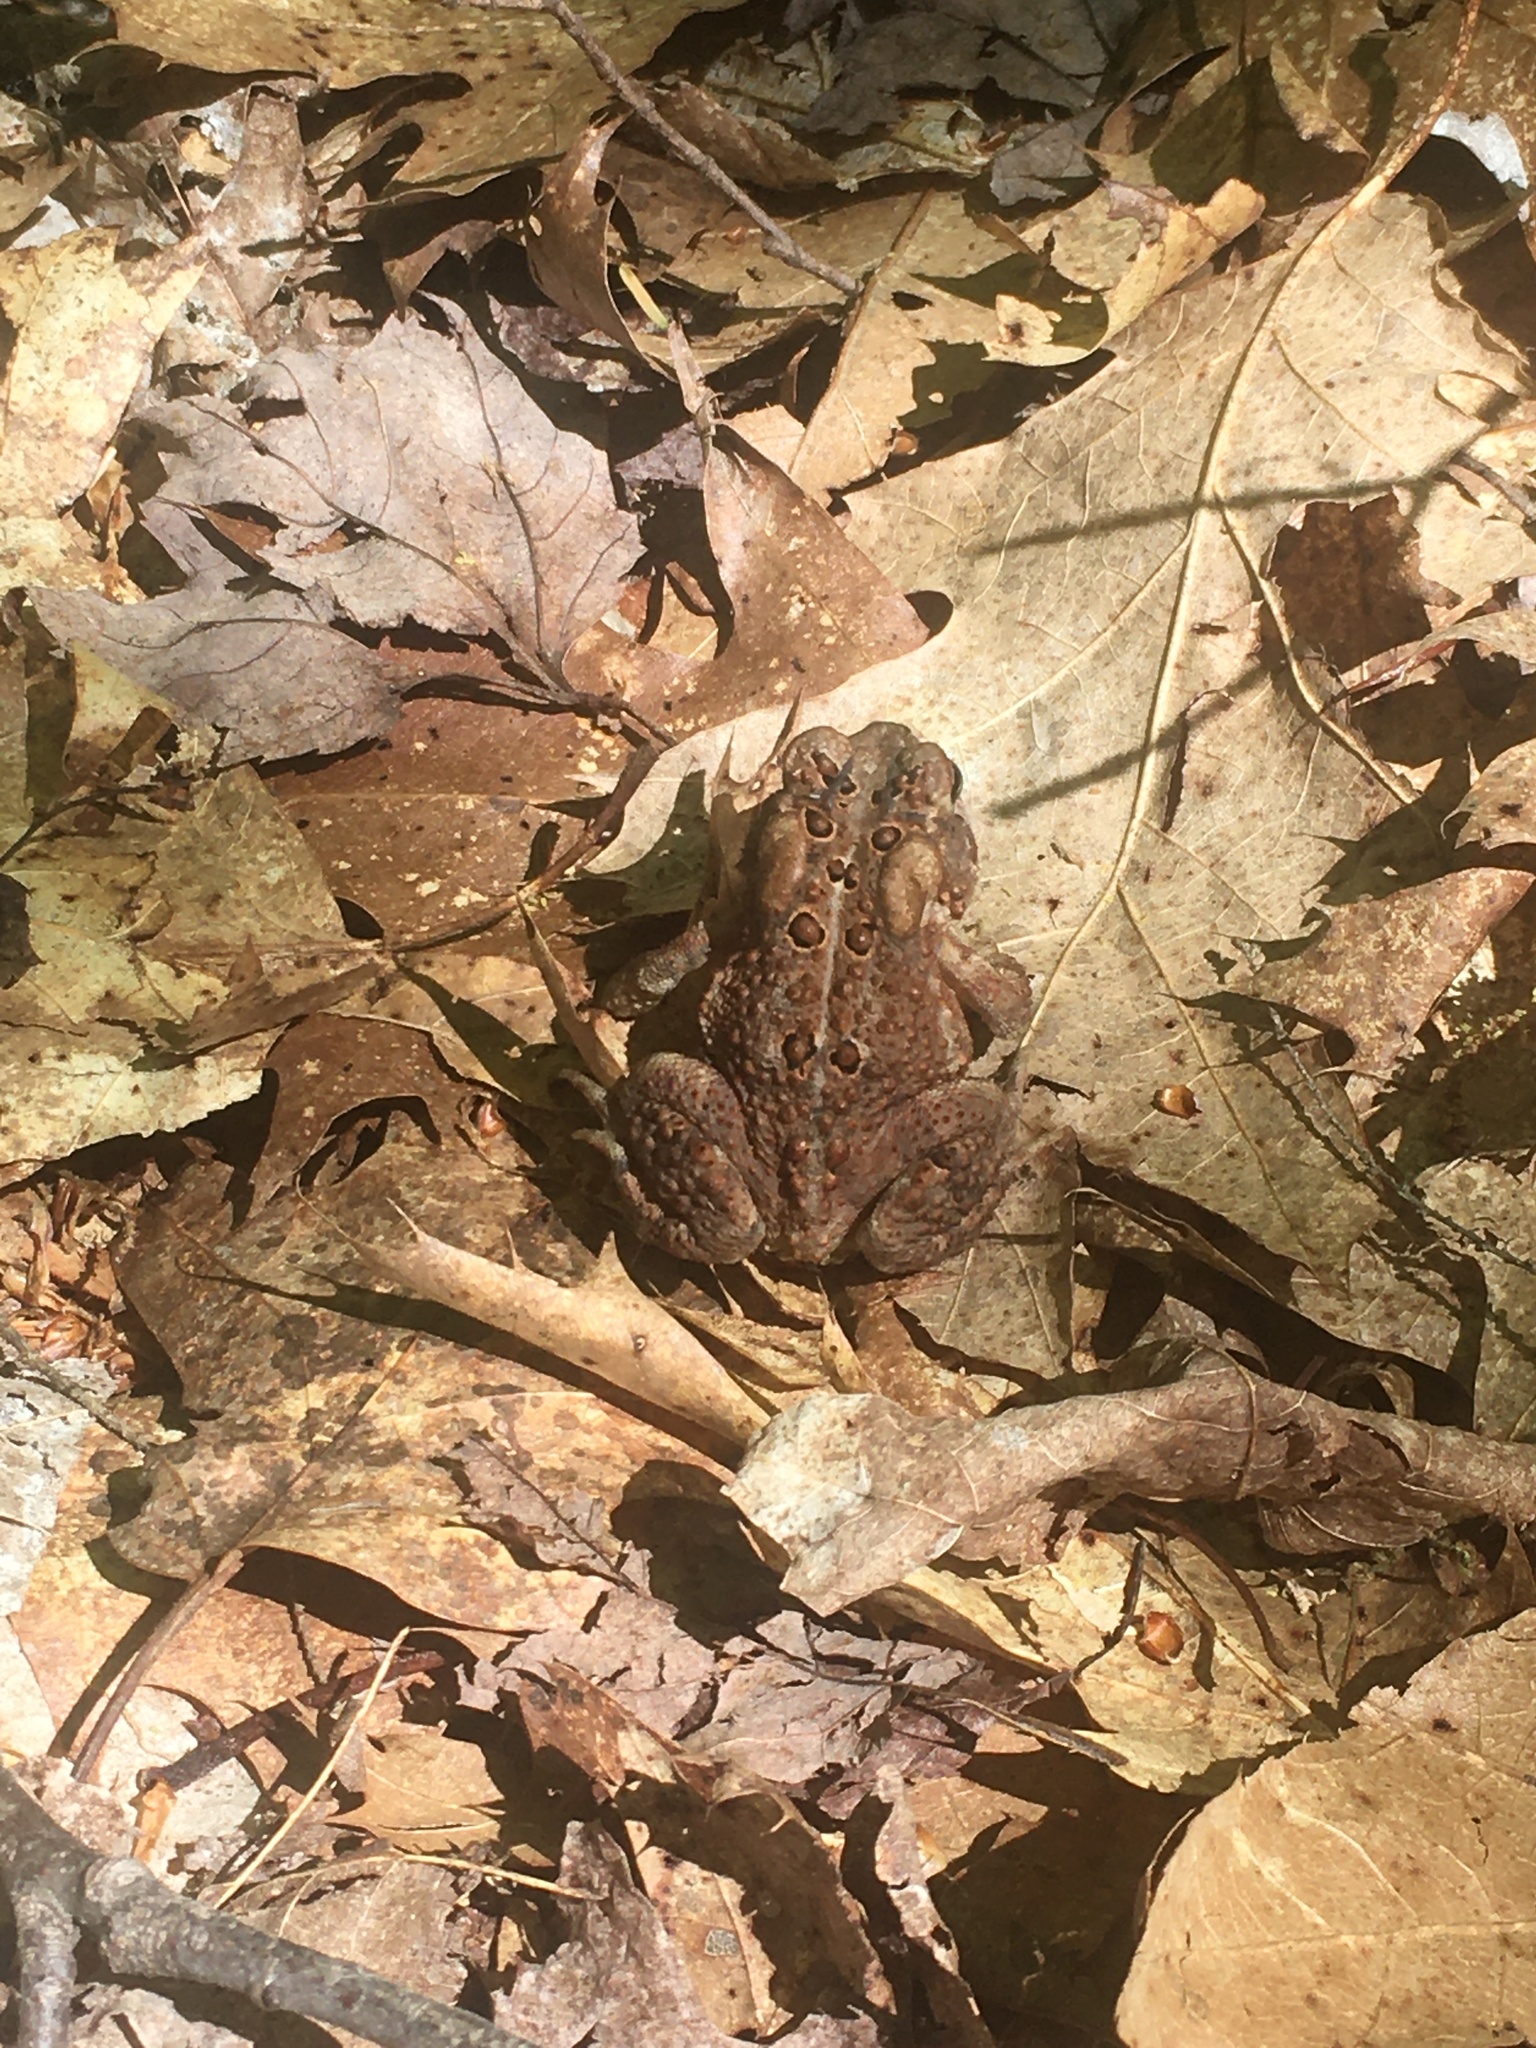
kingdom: Animalia
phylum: Chordata
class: Amphibia
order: Anura
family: Bufonidae
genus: Anaxyrus
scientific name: Anaxyrus americanus
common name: American toad
